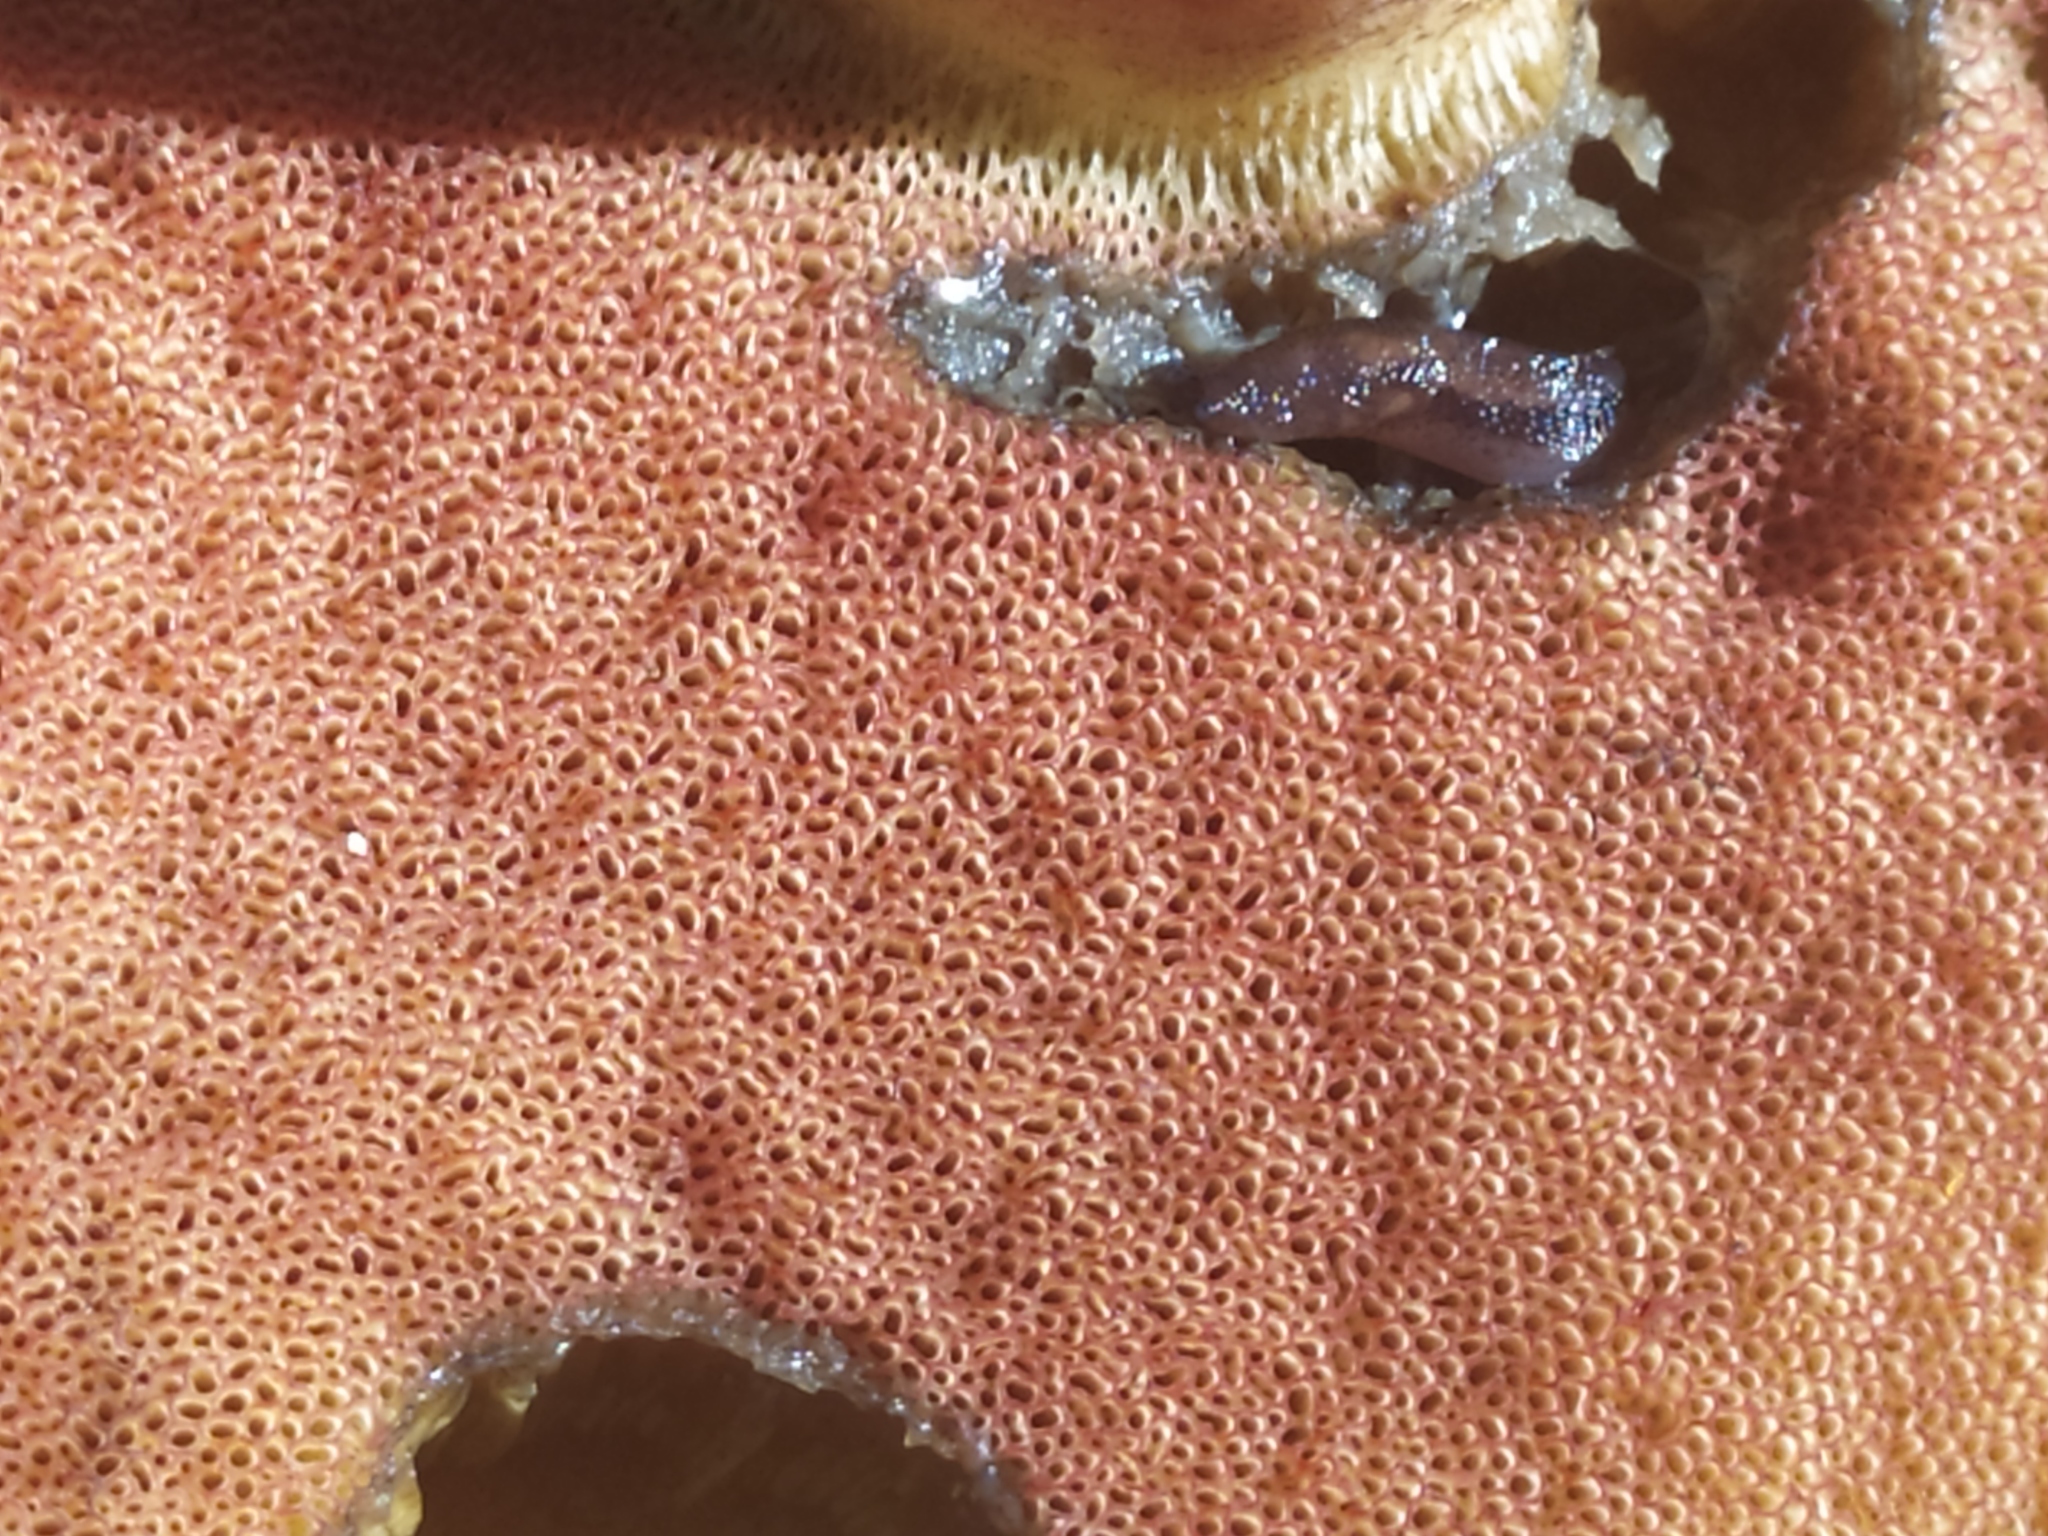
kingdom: Fungi
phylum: Basidiomycota
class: Agaricomycetes
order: Boletales
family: Boletaceae
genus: Suillellus
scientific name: Suillellus queletii
